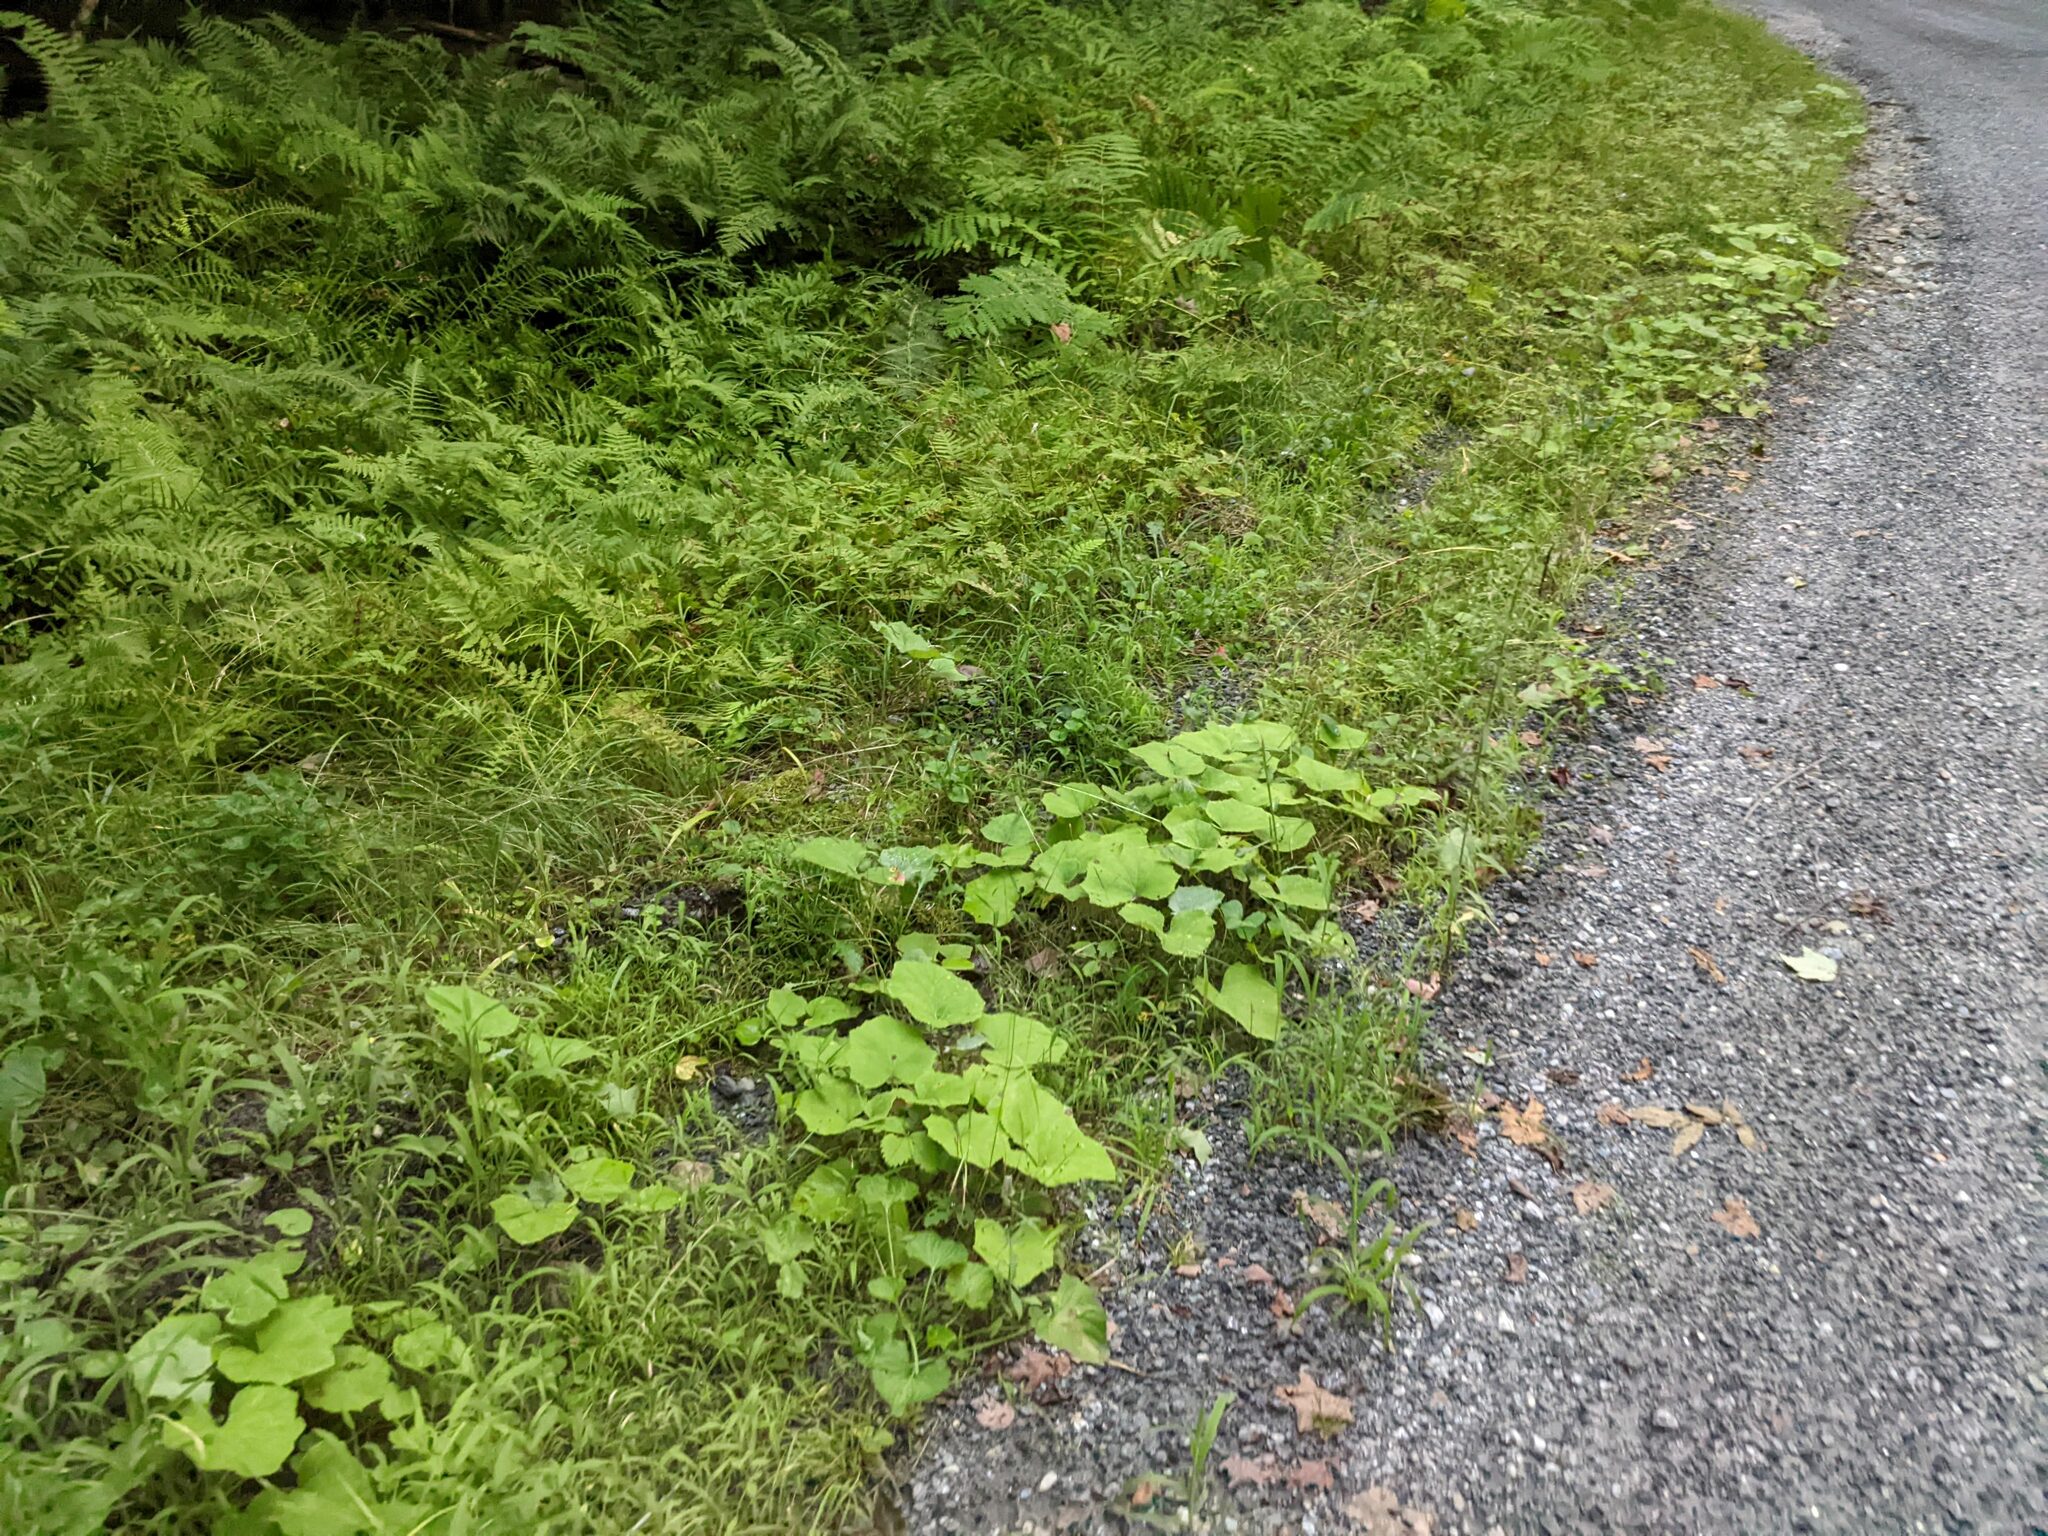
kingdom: Plantae
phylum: Tracheophyta
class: Magnoliopsida
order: Asterales
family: Asteraceae
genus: Tussilago
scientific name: Tussilago farfara
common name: Coltsfoot
